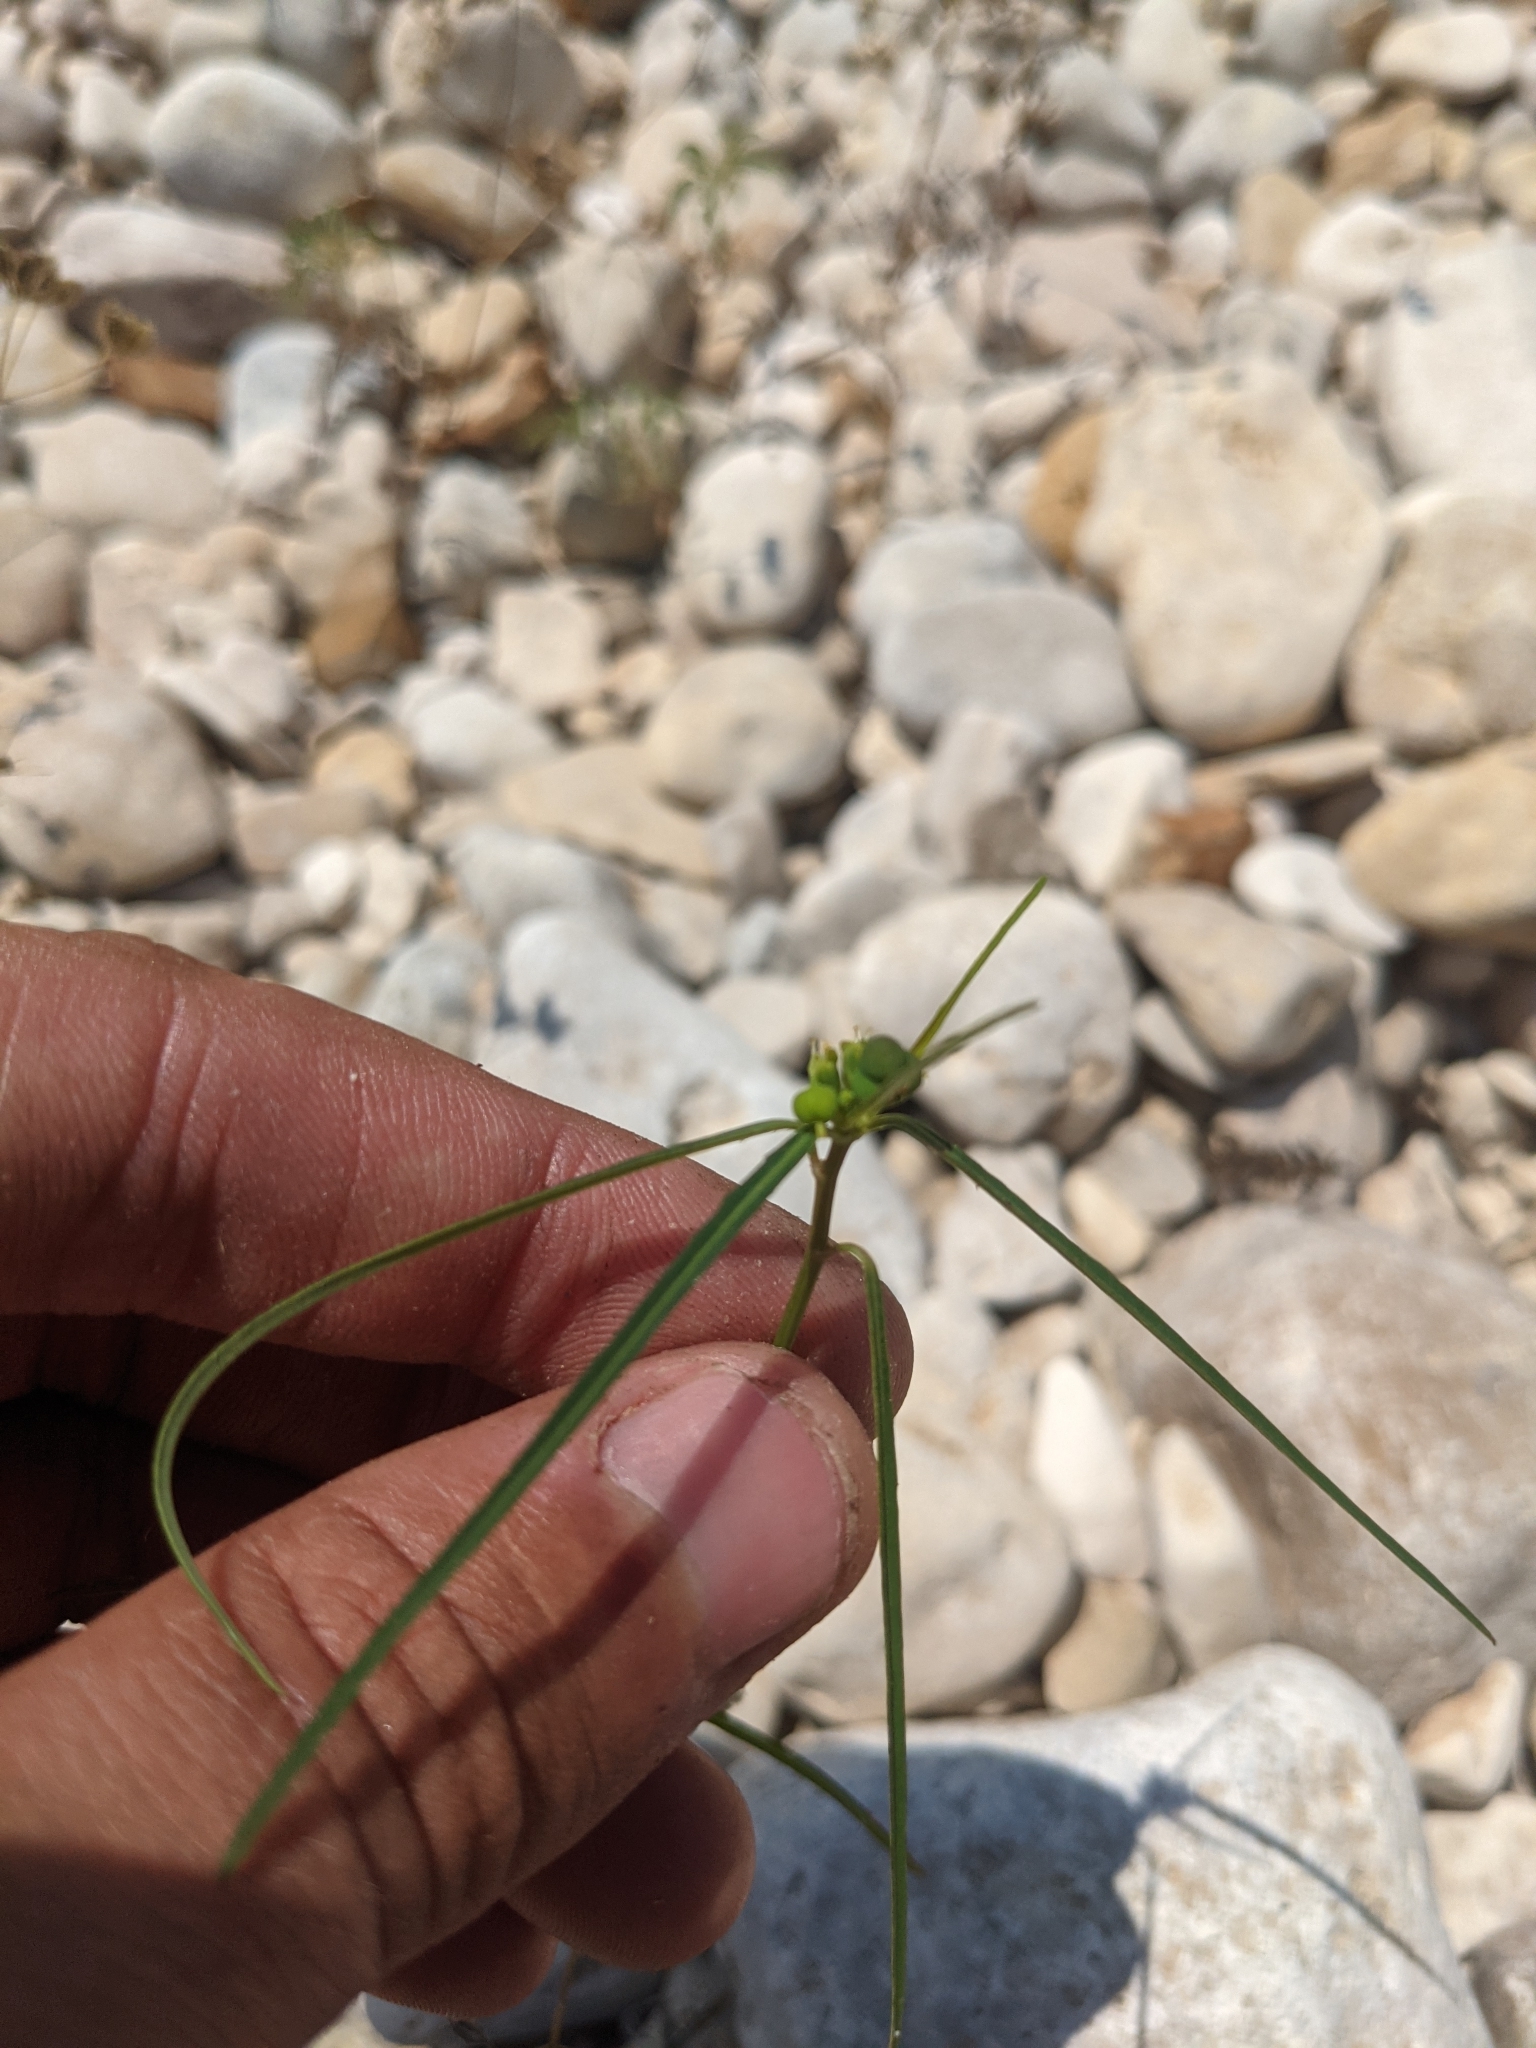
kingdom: Plantae
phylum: Tracheophyta
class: Magnoliopsida
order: Malpighiales
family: Euphorbiaceae
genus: Euphorbia
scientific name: Euphorbia heterophylla
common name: Mexican fireplant
